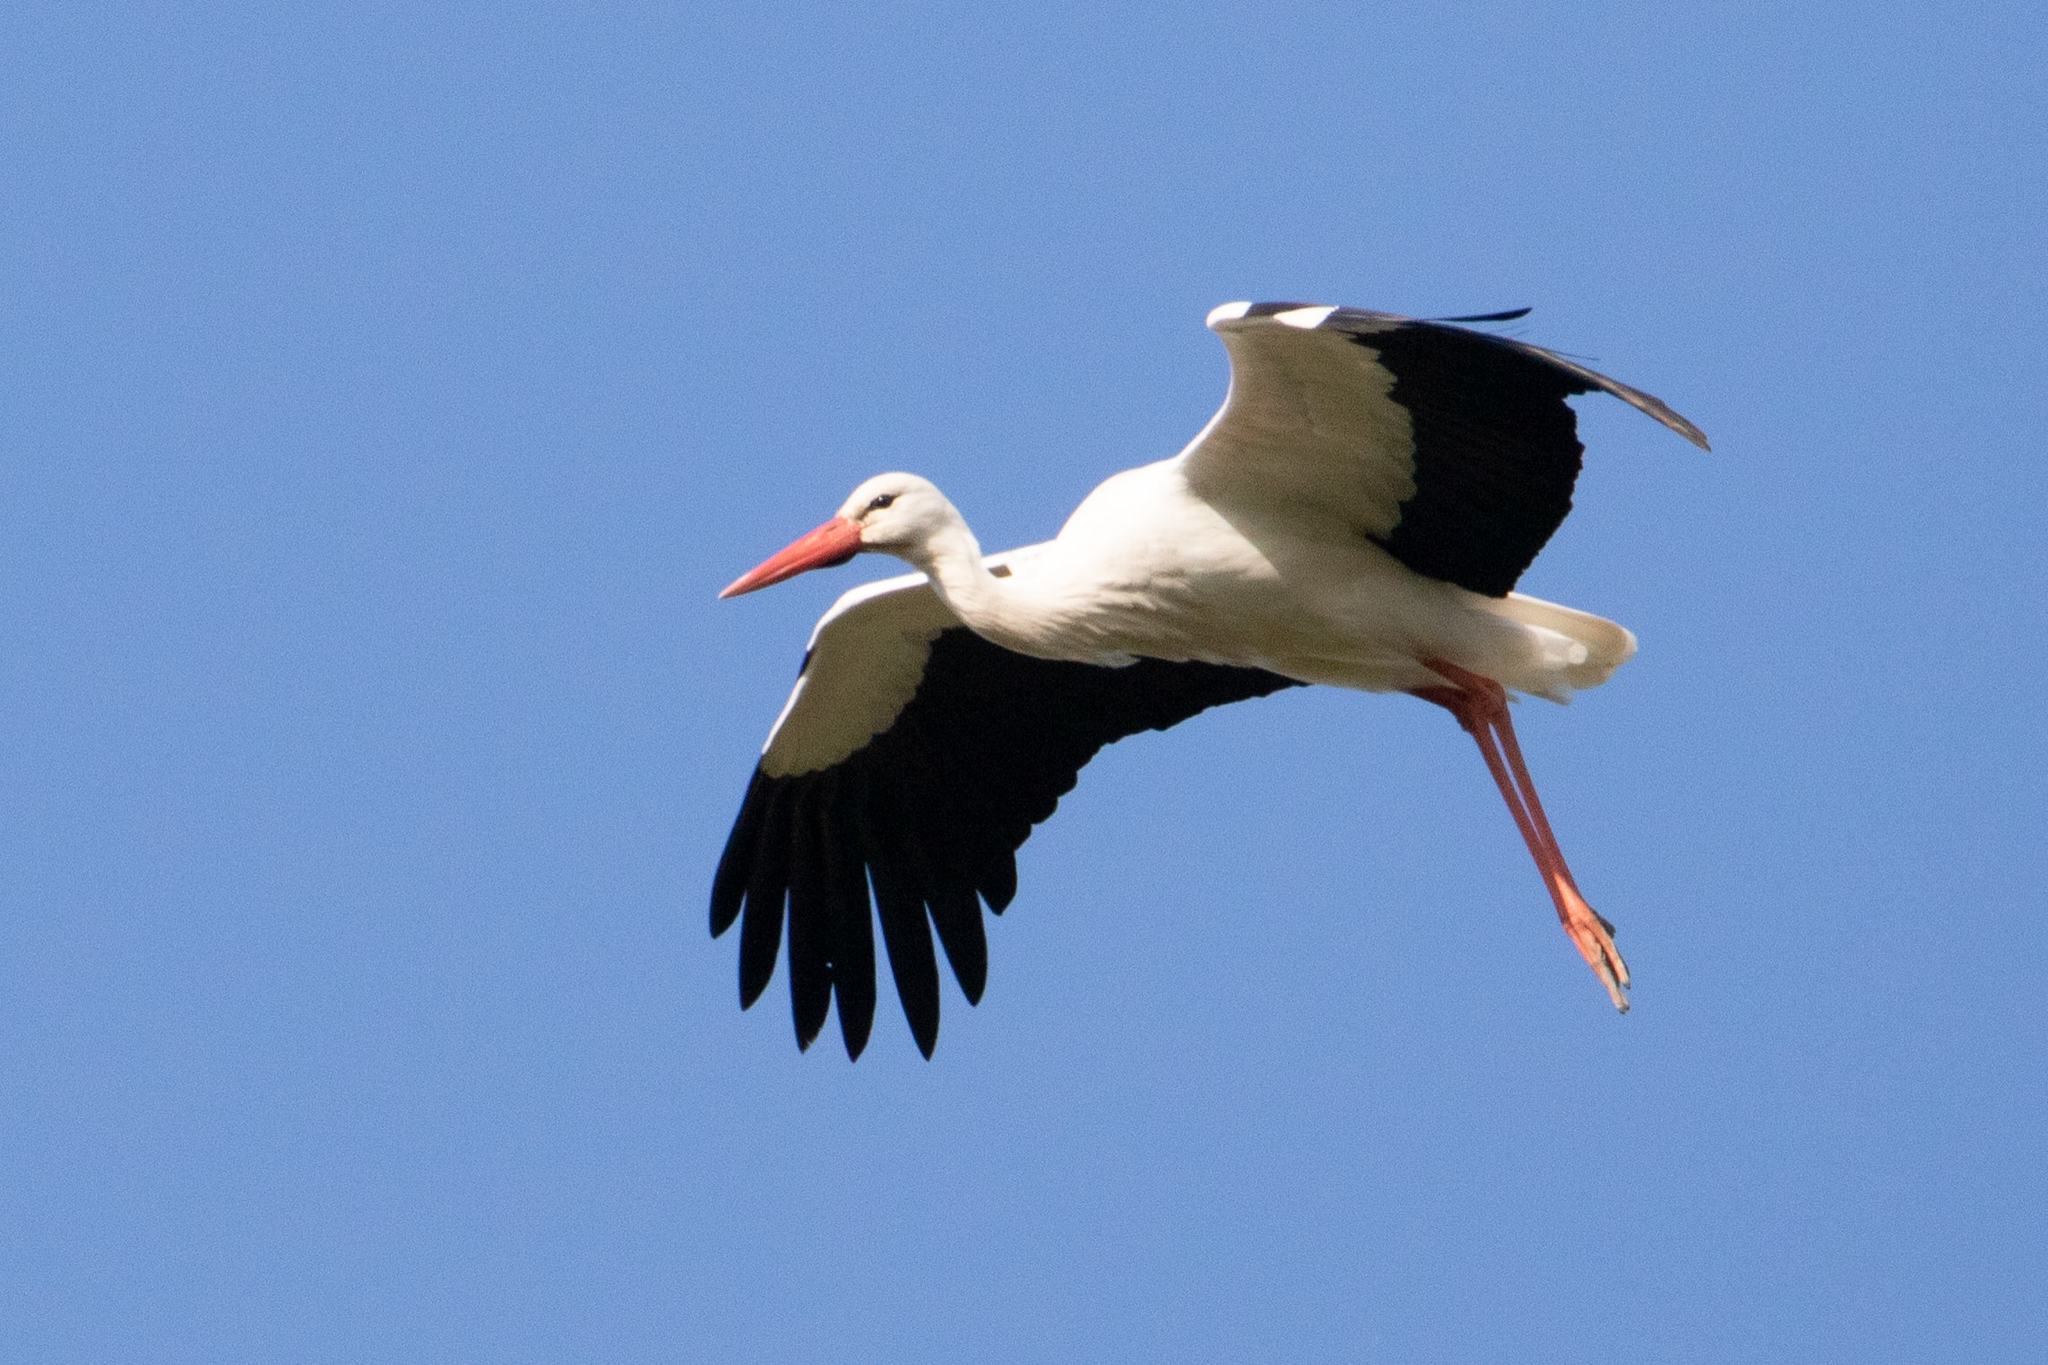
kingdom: Animalia
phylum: Chordata
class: Aves
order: Ciconiiformes
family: Ciconiidae
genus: Ciconia
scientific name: Ciconia ciconia
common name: White stork
